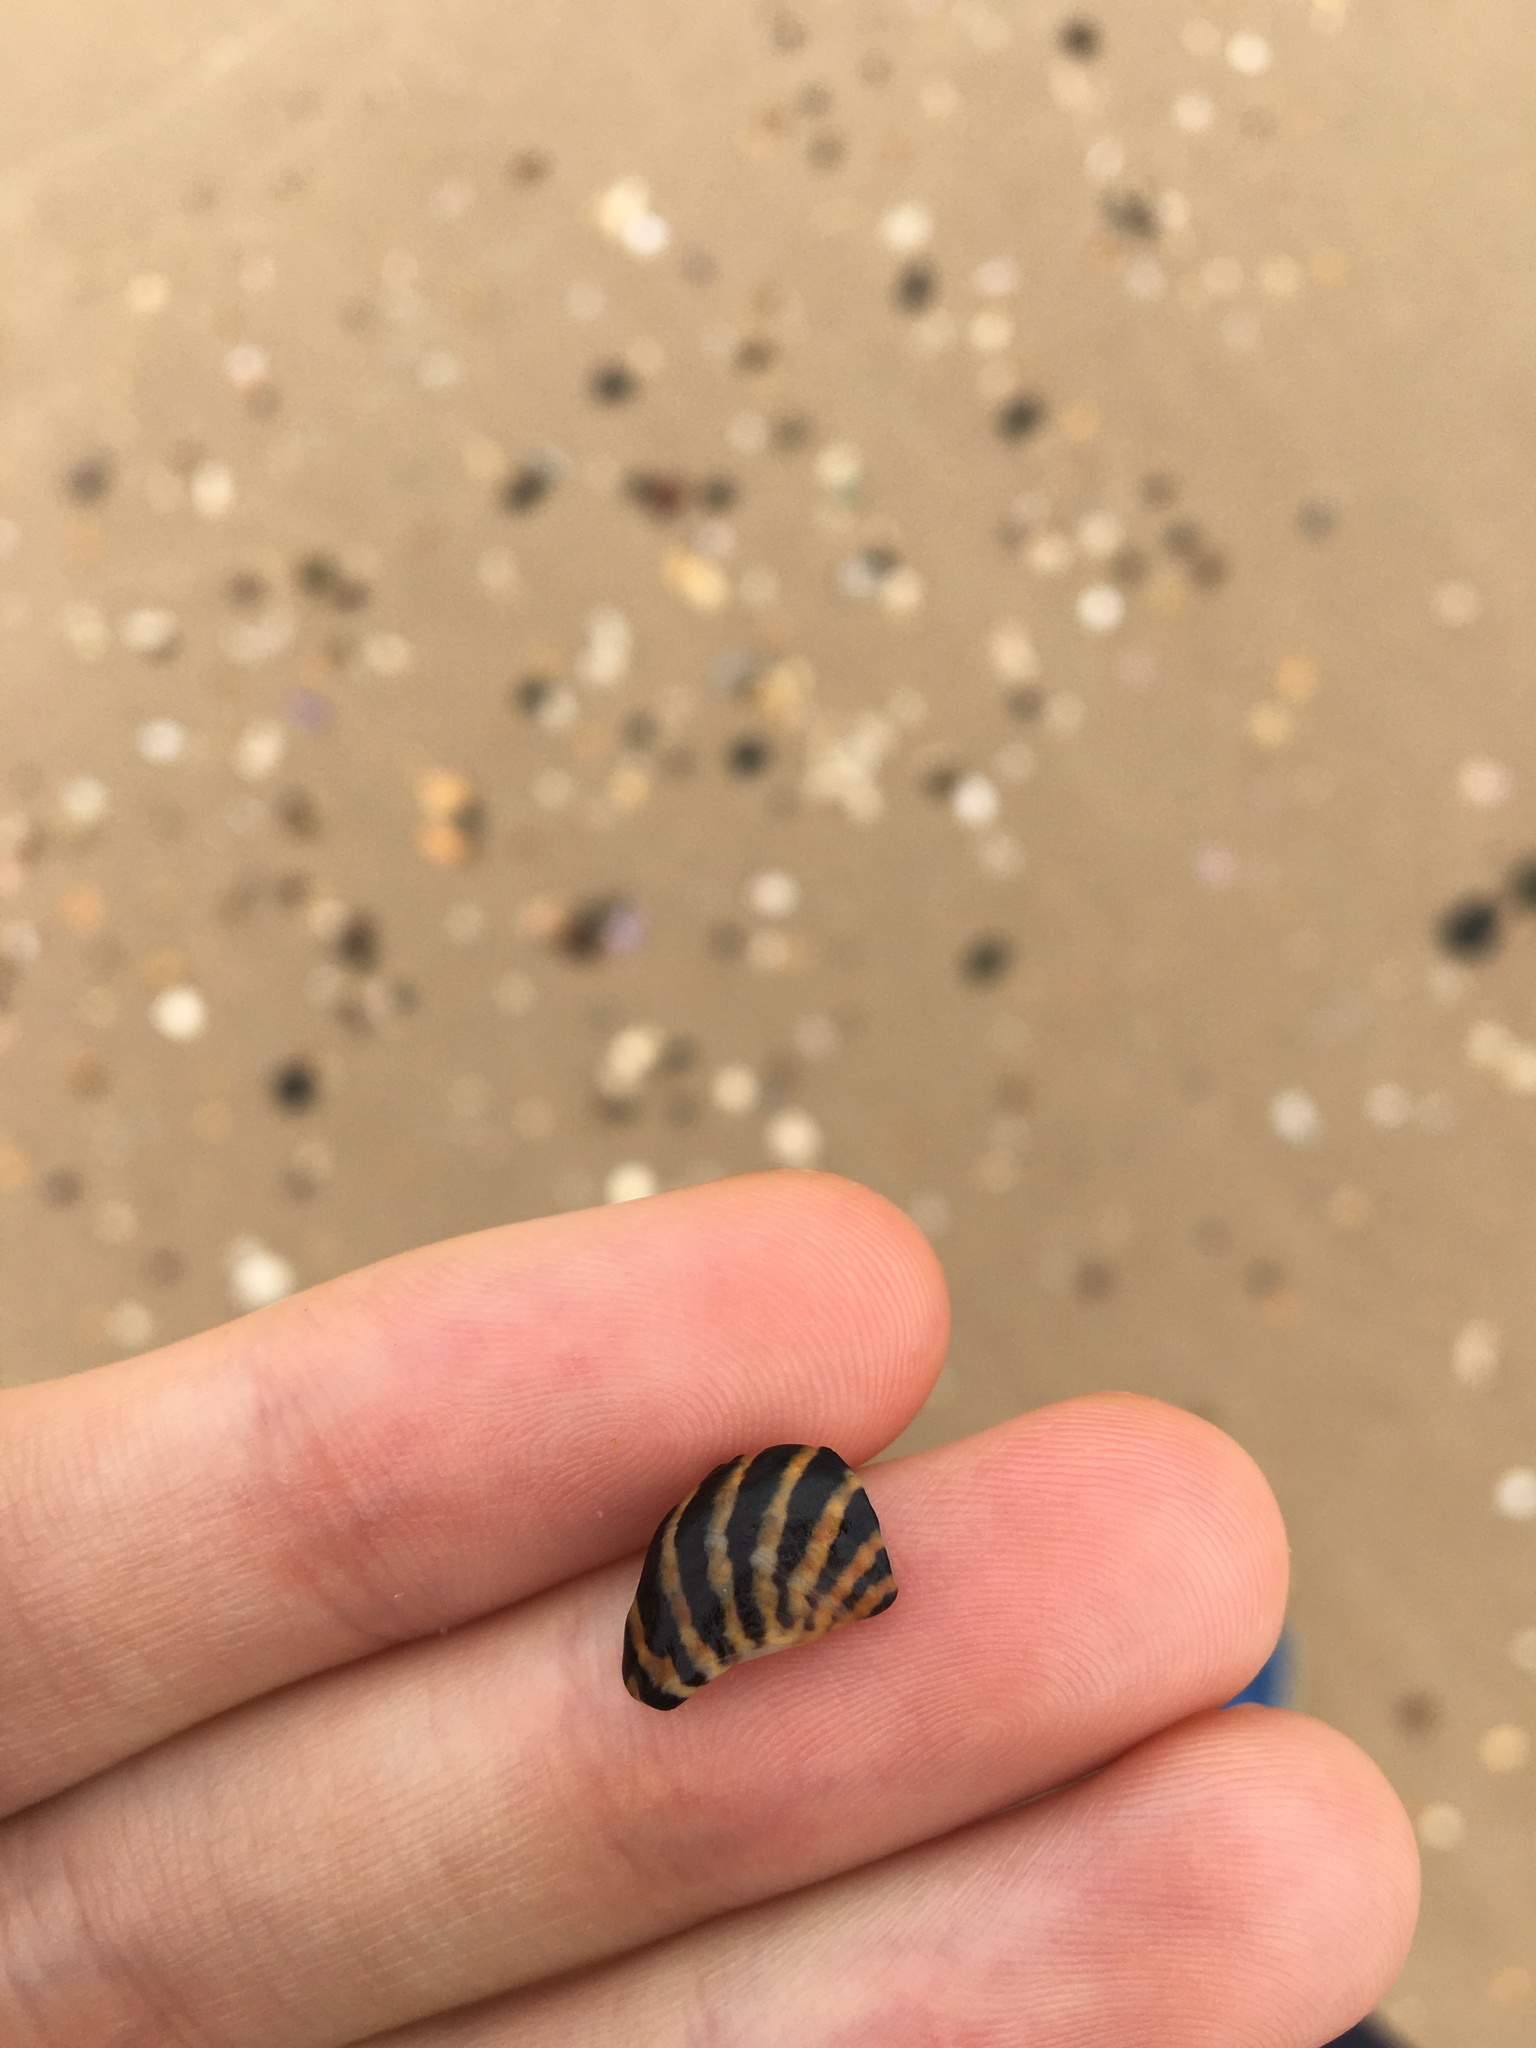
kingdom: Animalia
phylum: Mollusca
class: Gastropoda
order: Trochida
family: Trochidae
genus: Austrocochlea
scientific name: Austrocochlea porcata
